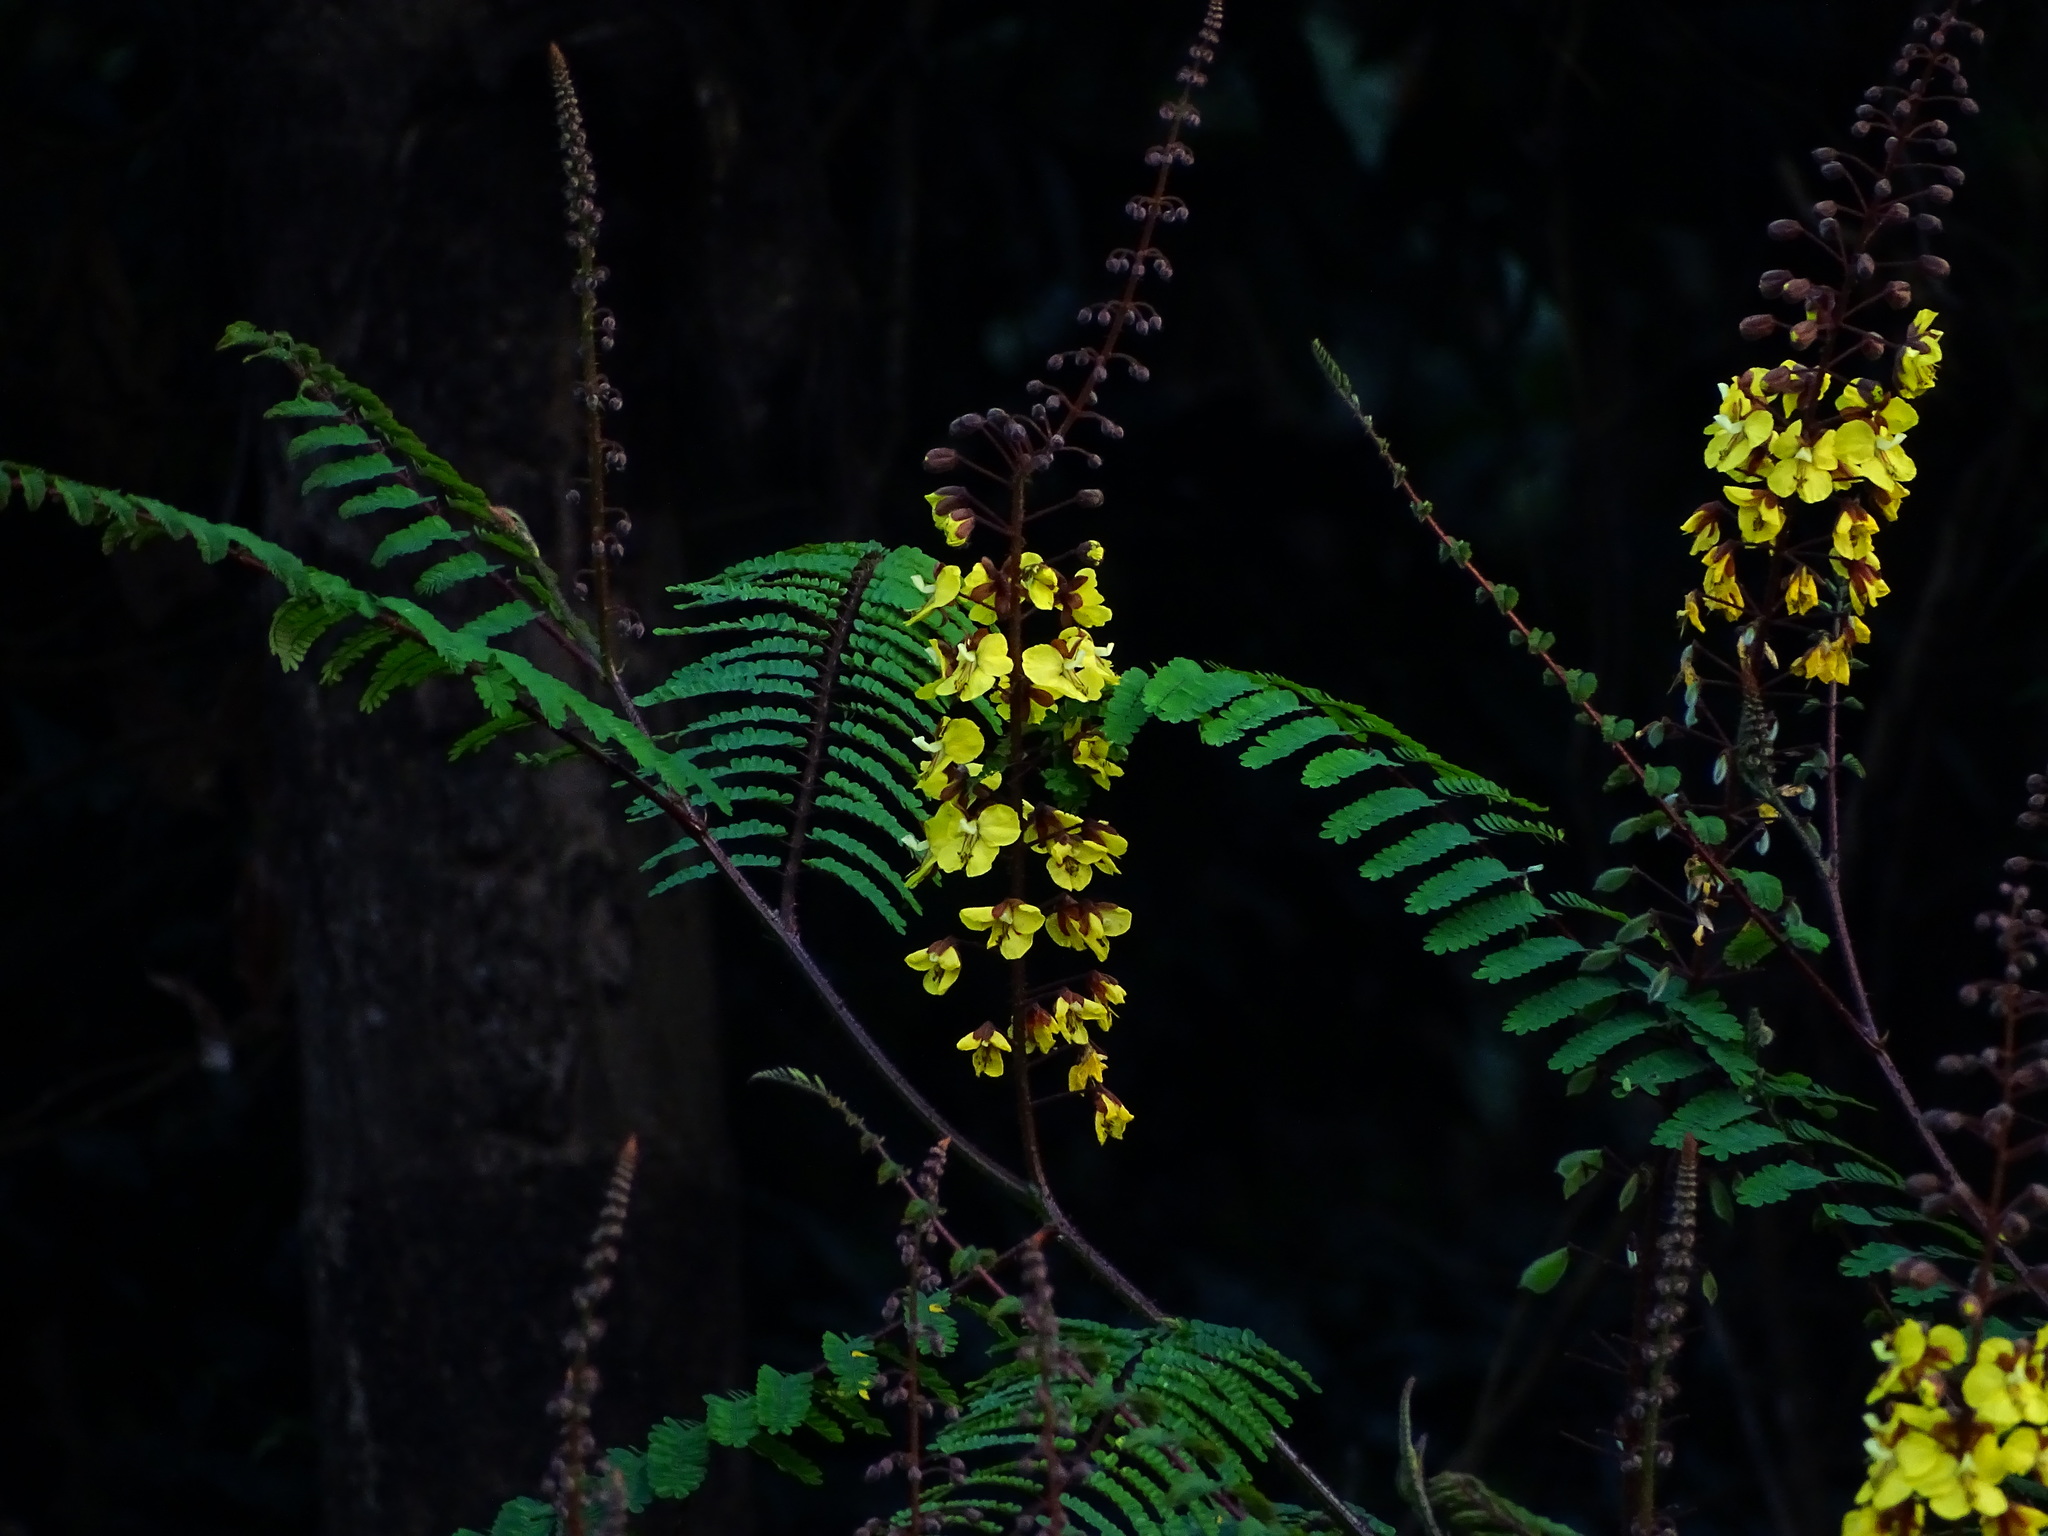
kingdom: Plantae
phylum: Tracheophyta
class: Magnoliopsida
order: Fabales
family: Fabaceae
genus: Hultholia
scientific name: Hultholia mimosoides
